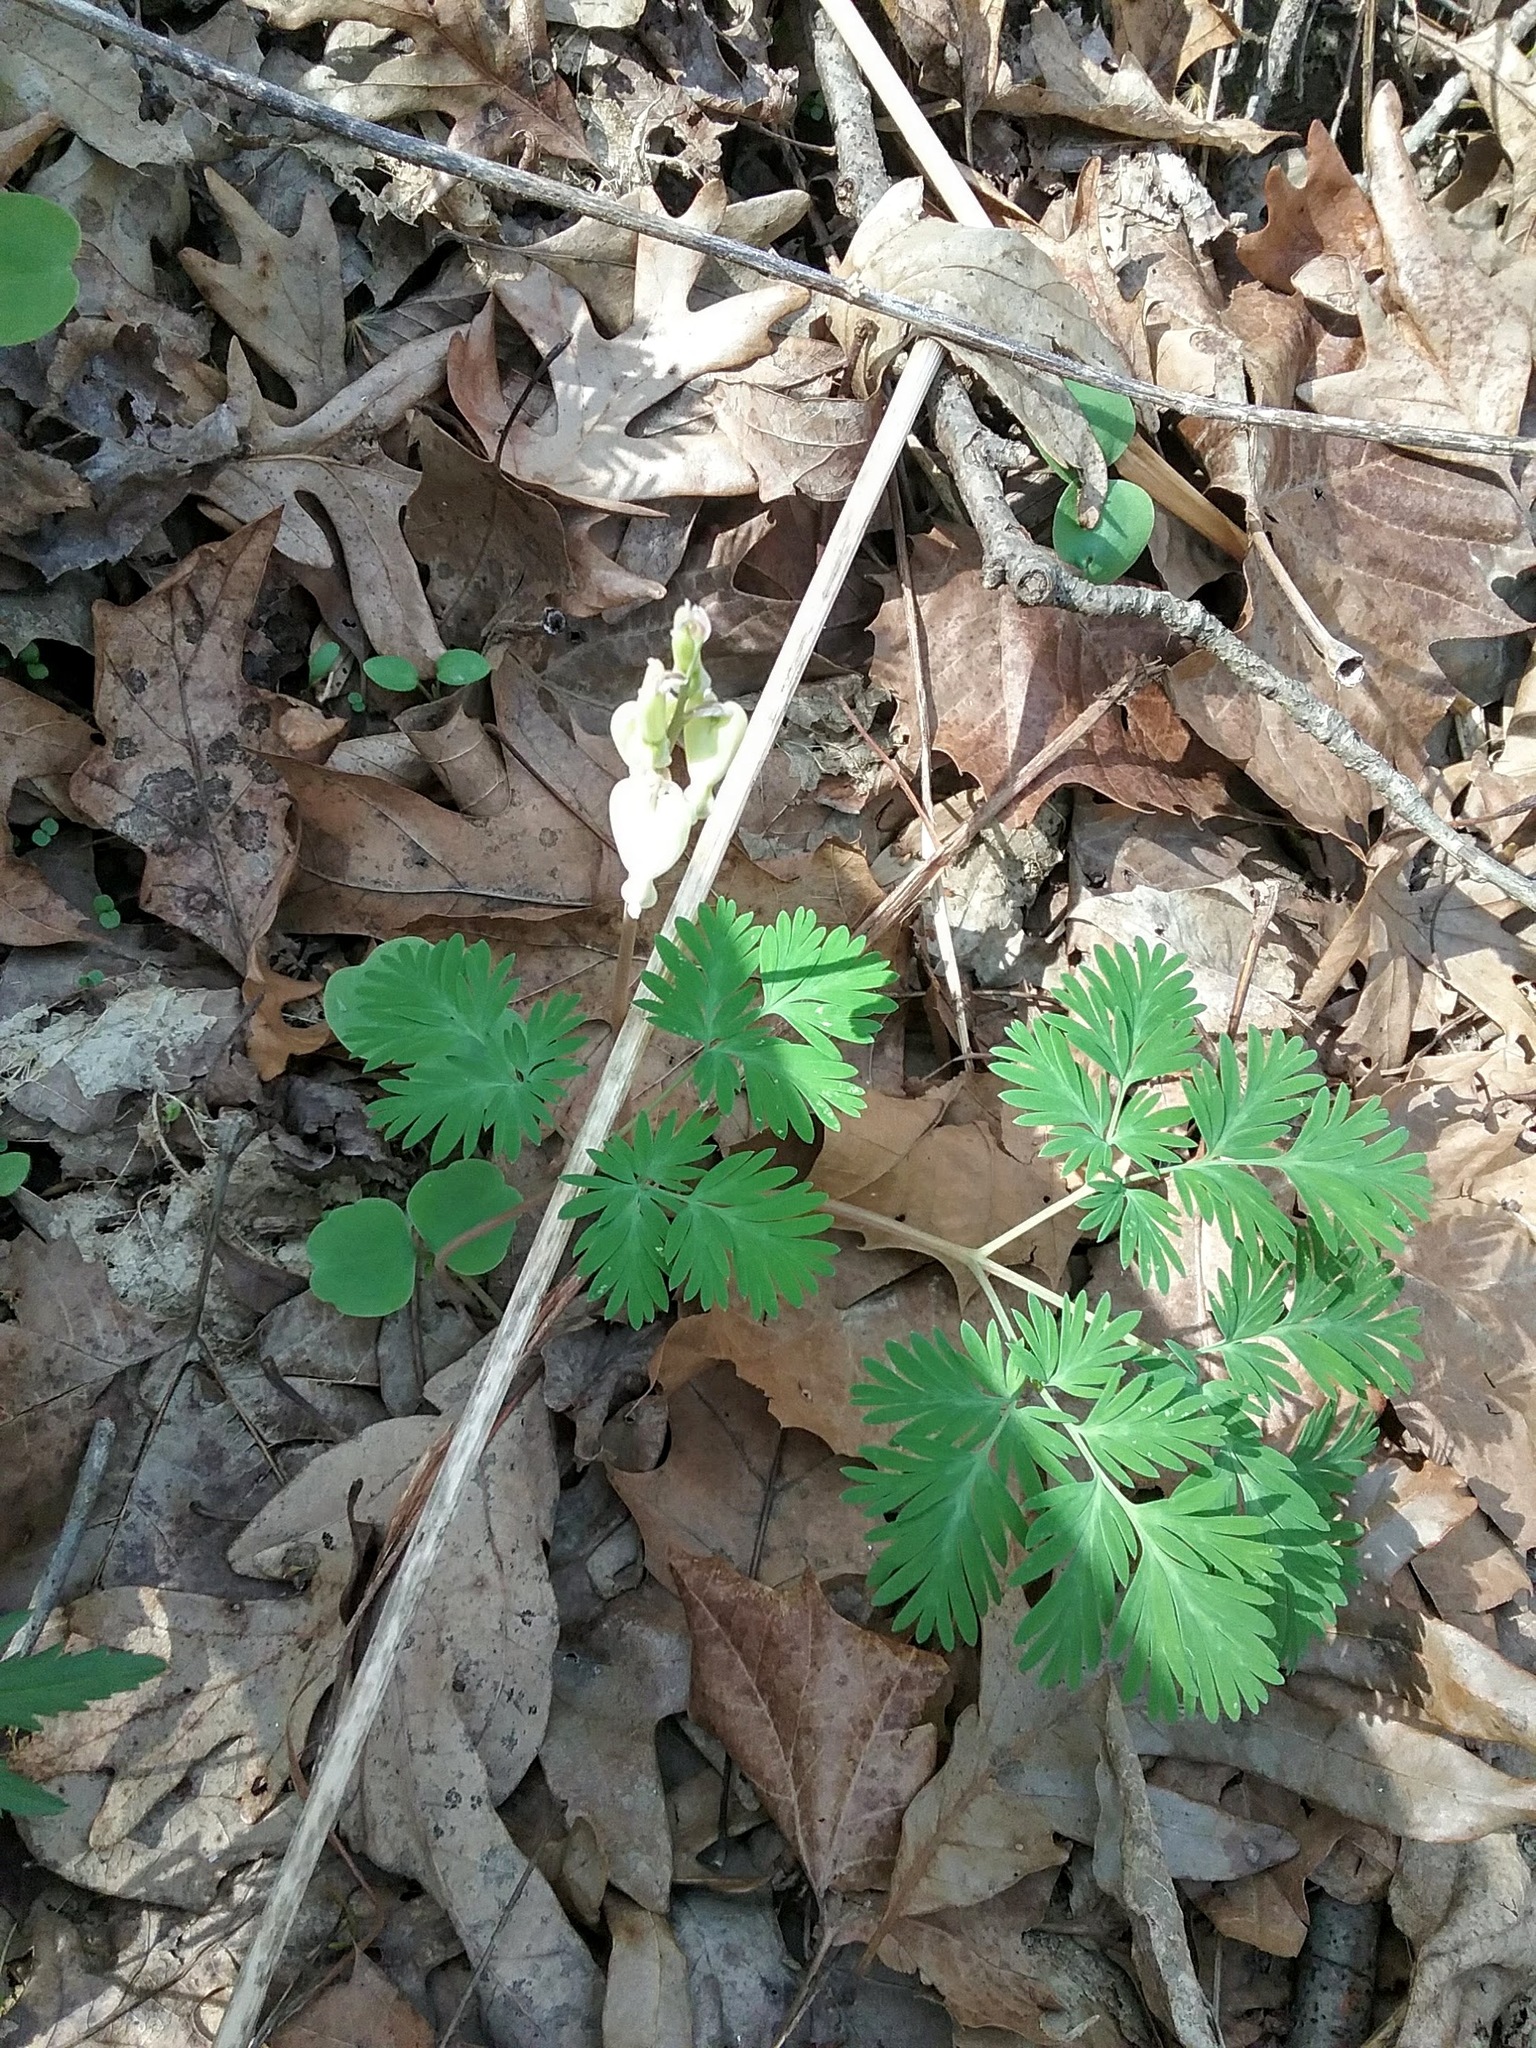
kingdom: Plantae
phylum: Tracheophyta
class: Magnoliopsida
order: Ranunculales
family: Papaveraceae
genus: Dicentra
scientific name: Dicentra canadensis
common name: Squirrel-corn
